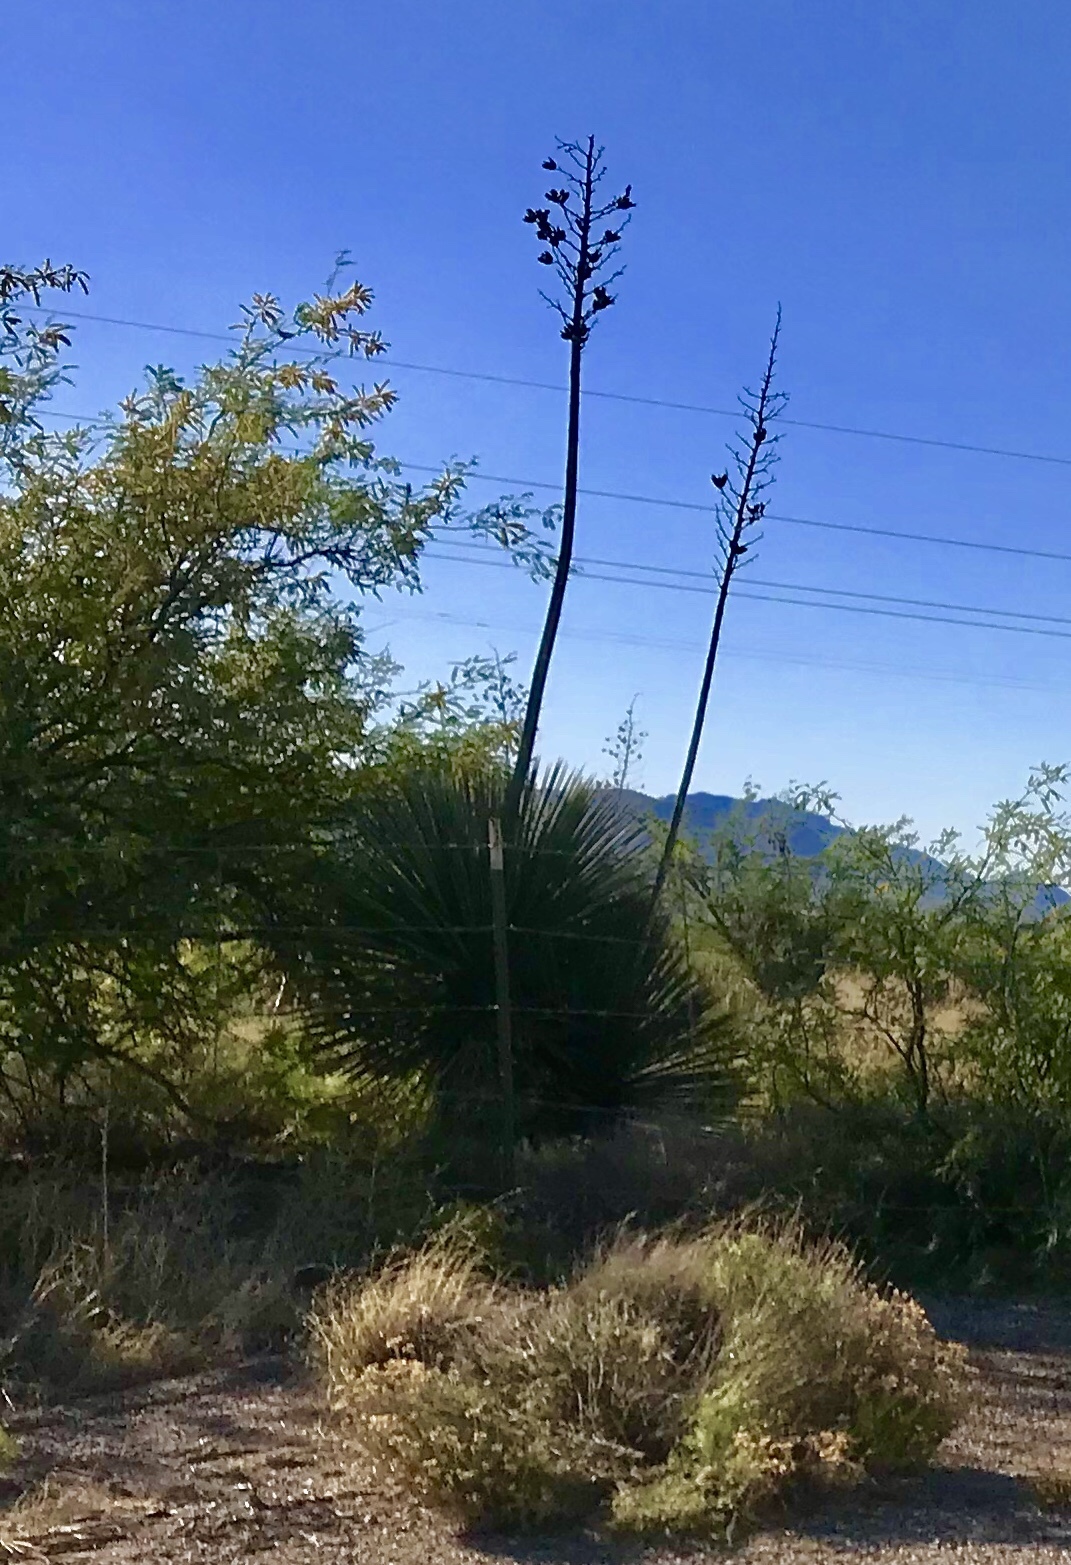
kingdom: Plantae
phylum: Tracheophyta
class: Liliopsida
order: Asparagales
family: Asparagaceae
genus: Yucca
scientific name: Yucca elata
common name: Palmella
